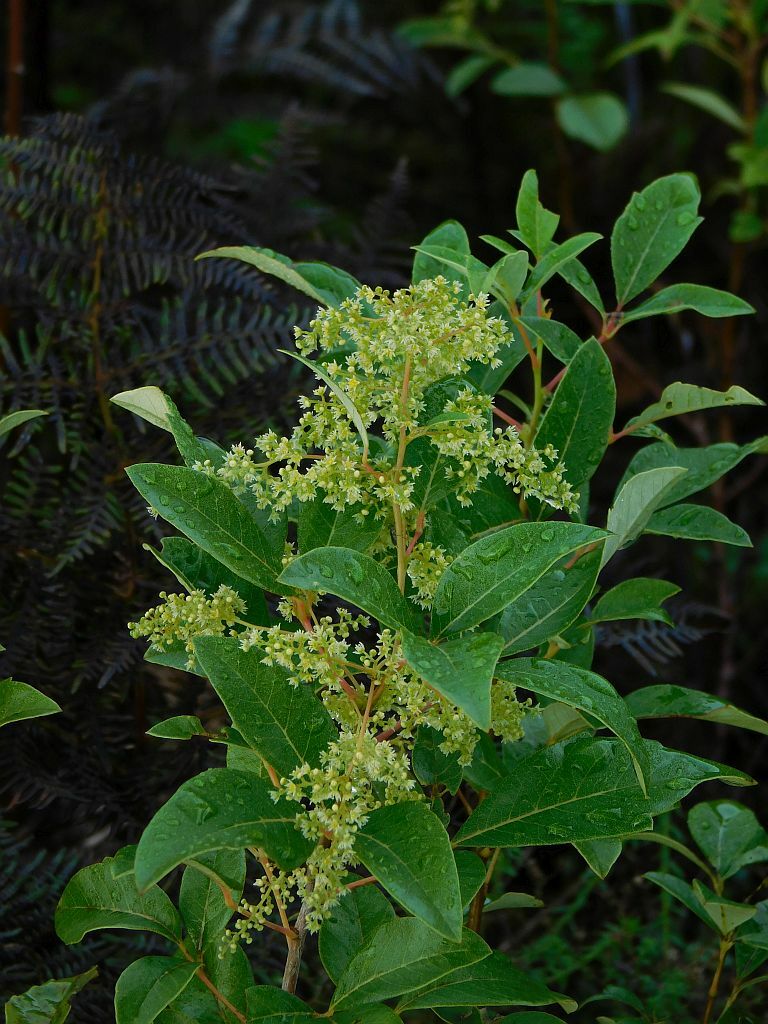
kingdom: Plantae
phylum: Tracheophyta
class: Magnoliopsida
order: Sapindales
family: Anacardiaceae
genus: Searsia
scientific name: Searsia tomentosa
